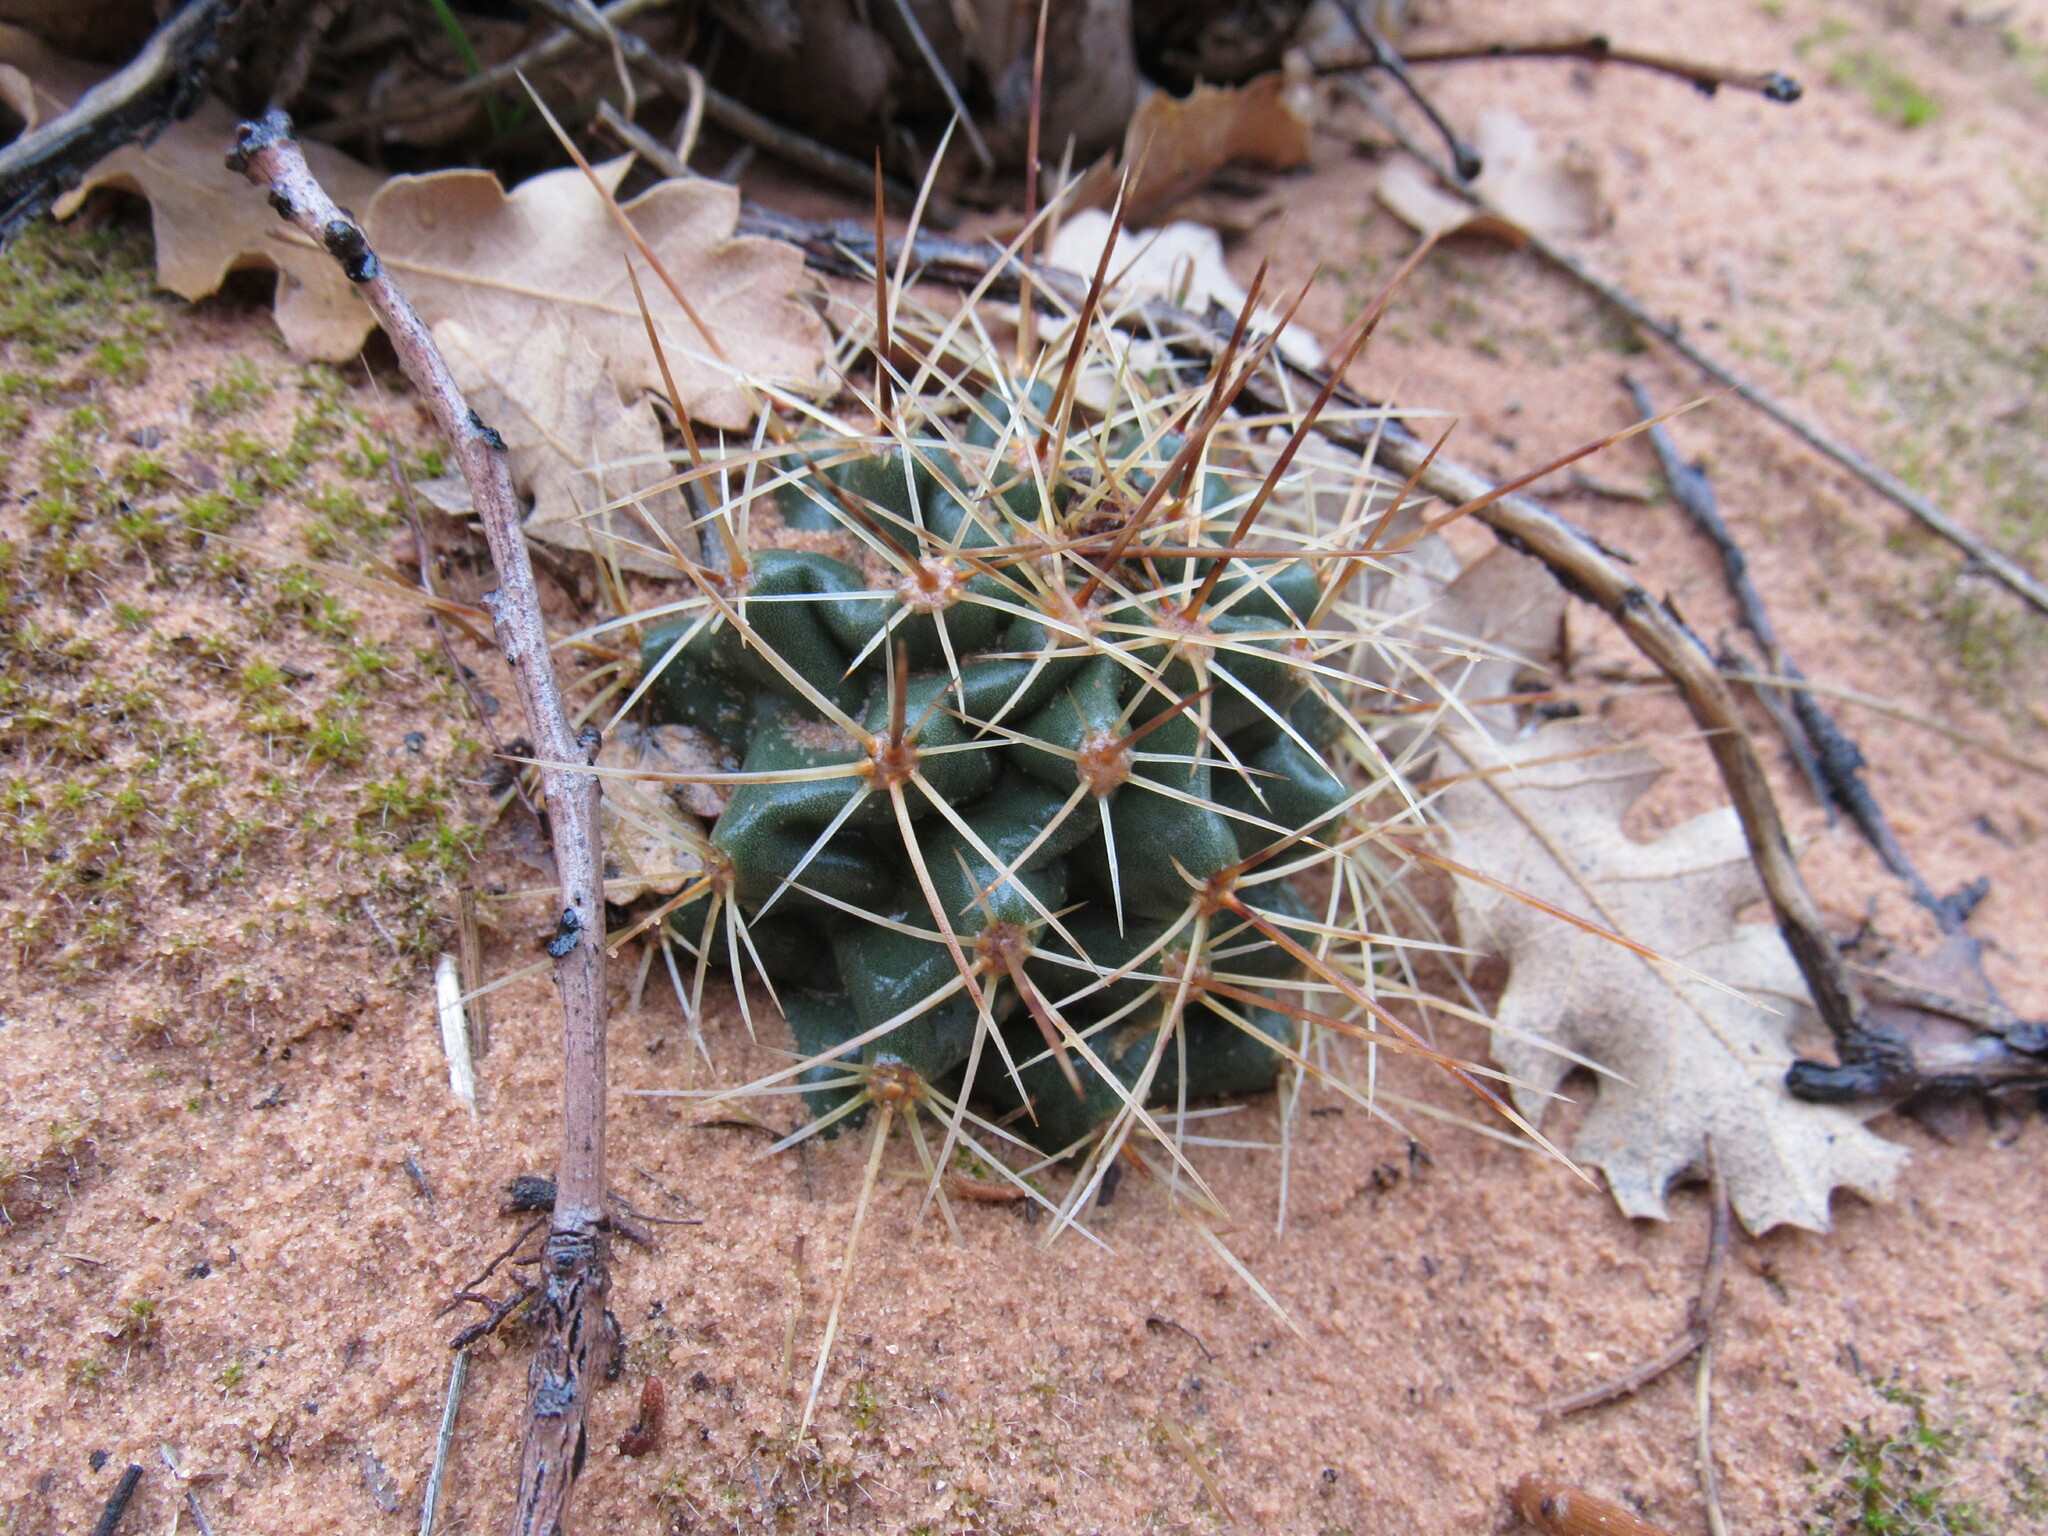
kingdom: Plantae
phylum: Tracheophyta
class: Magnoliopsida
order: Caryophyllales
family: Cactaceae
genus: Echinocereus
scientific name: Echinocereus triglochidiatus
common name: Claretcup hedgehog
